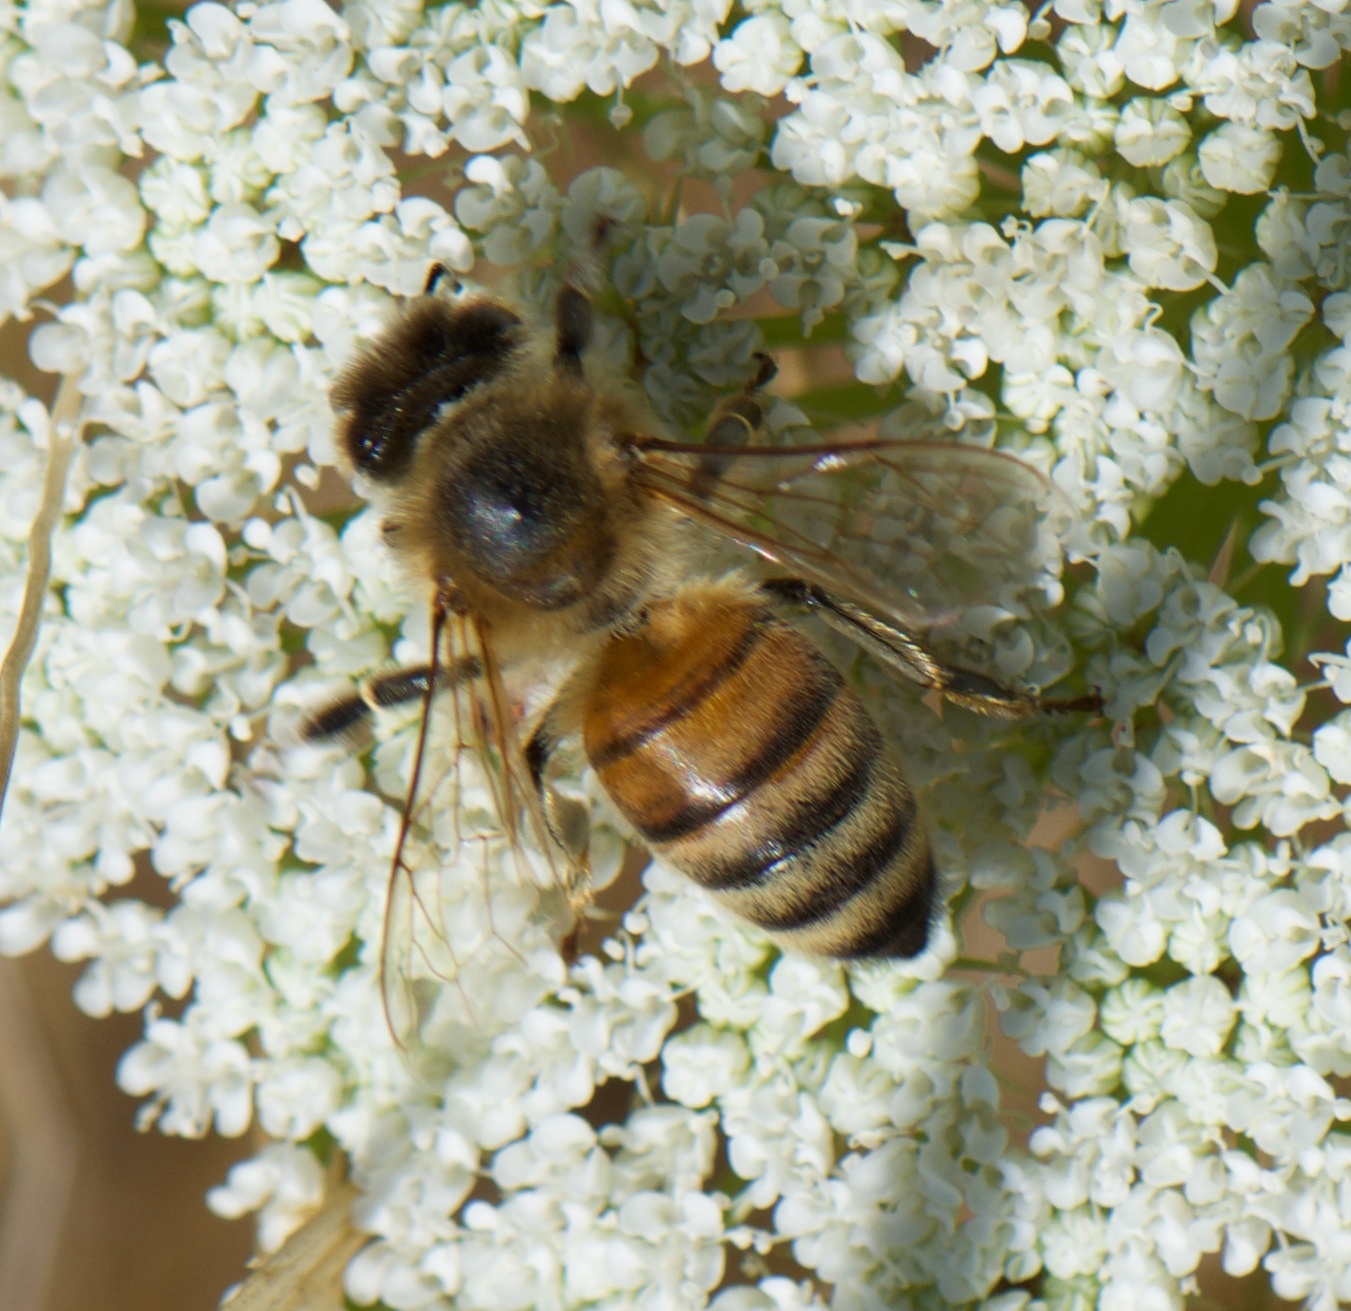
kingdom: Animalia
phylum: Arthropoda
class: Insecta
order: Hymenoptera
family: Apidae
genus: Apis
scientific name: Apis mellifera
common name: Honey bee
